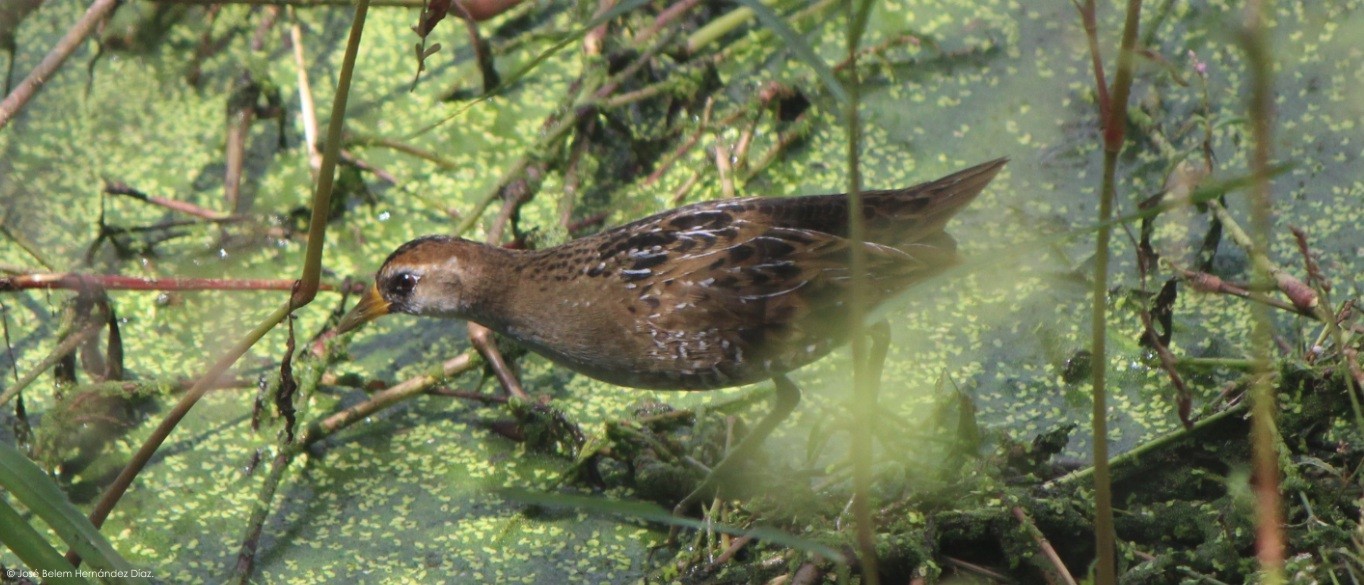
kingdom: Animalia
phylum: Chordata
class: Aves
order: Gruiformes
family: Rallidae
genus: Porzana
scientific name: Porzana carolina
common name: Sora
